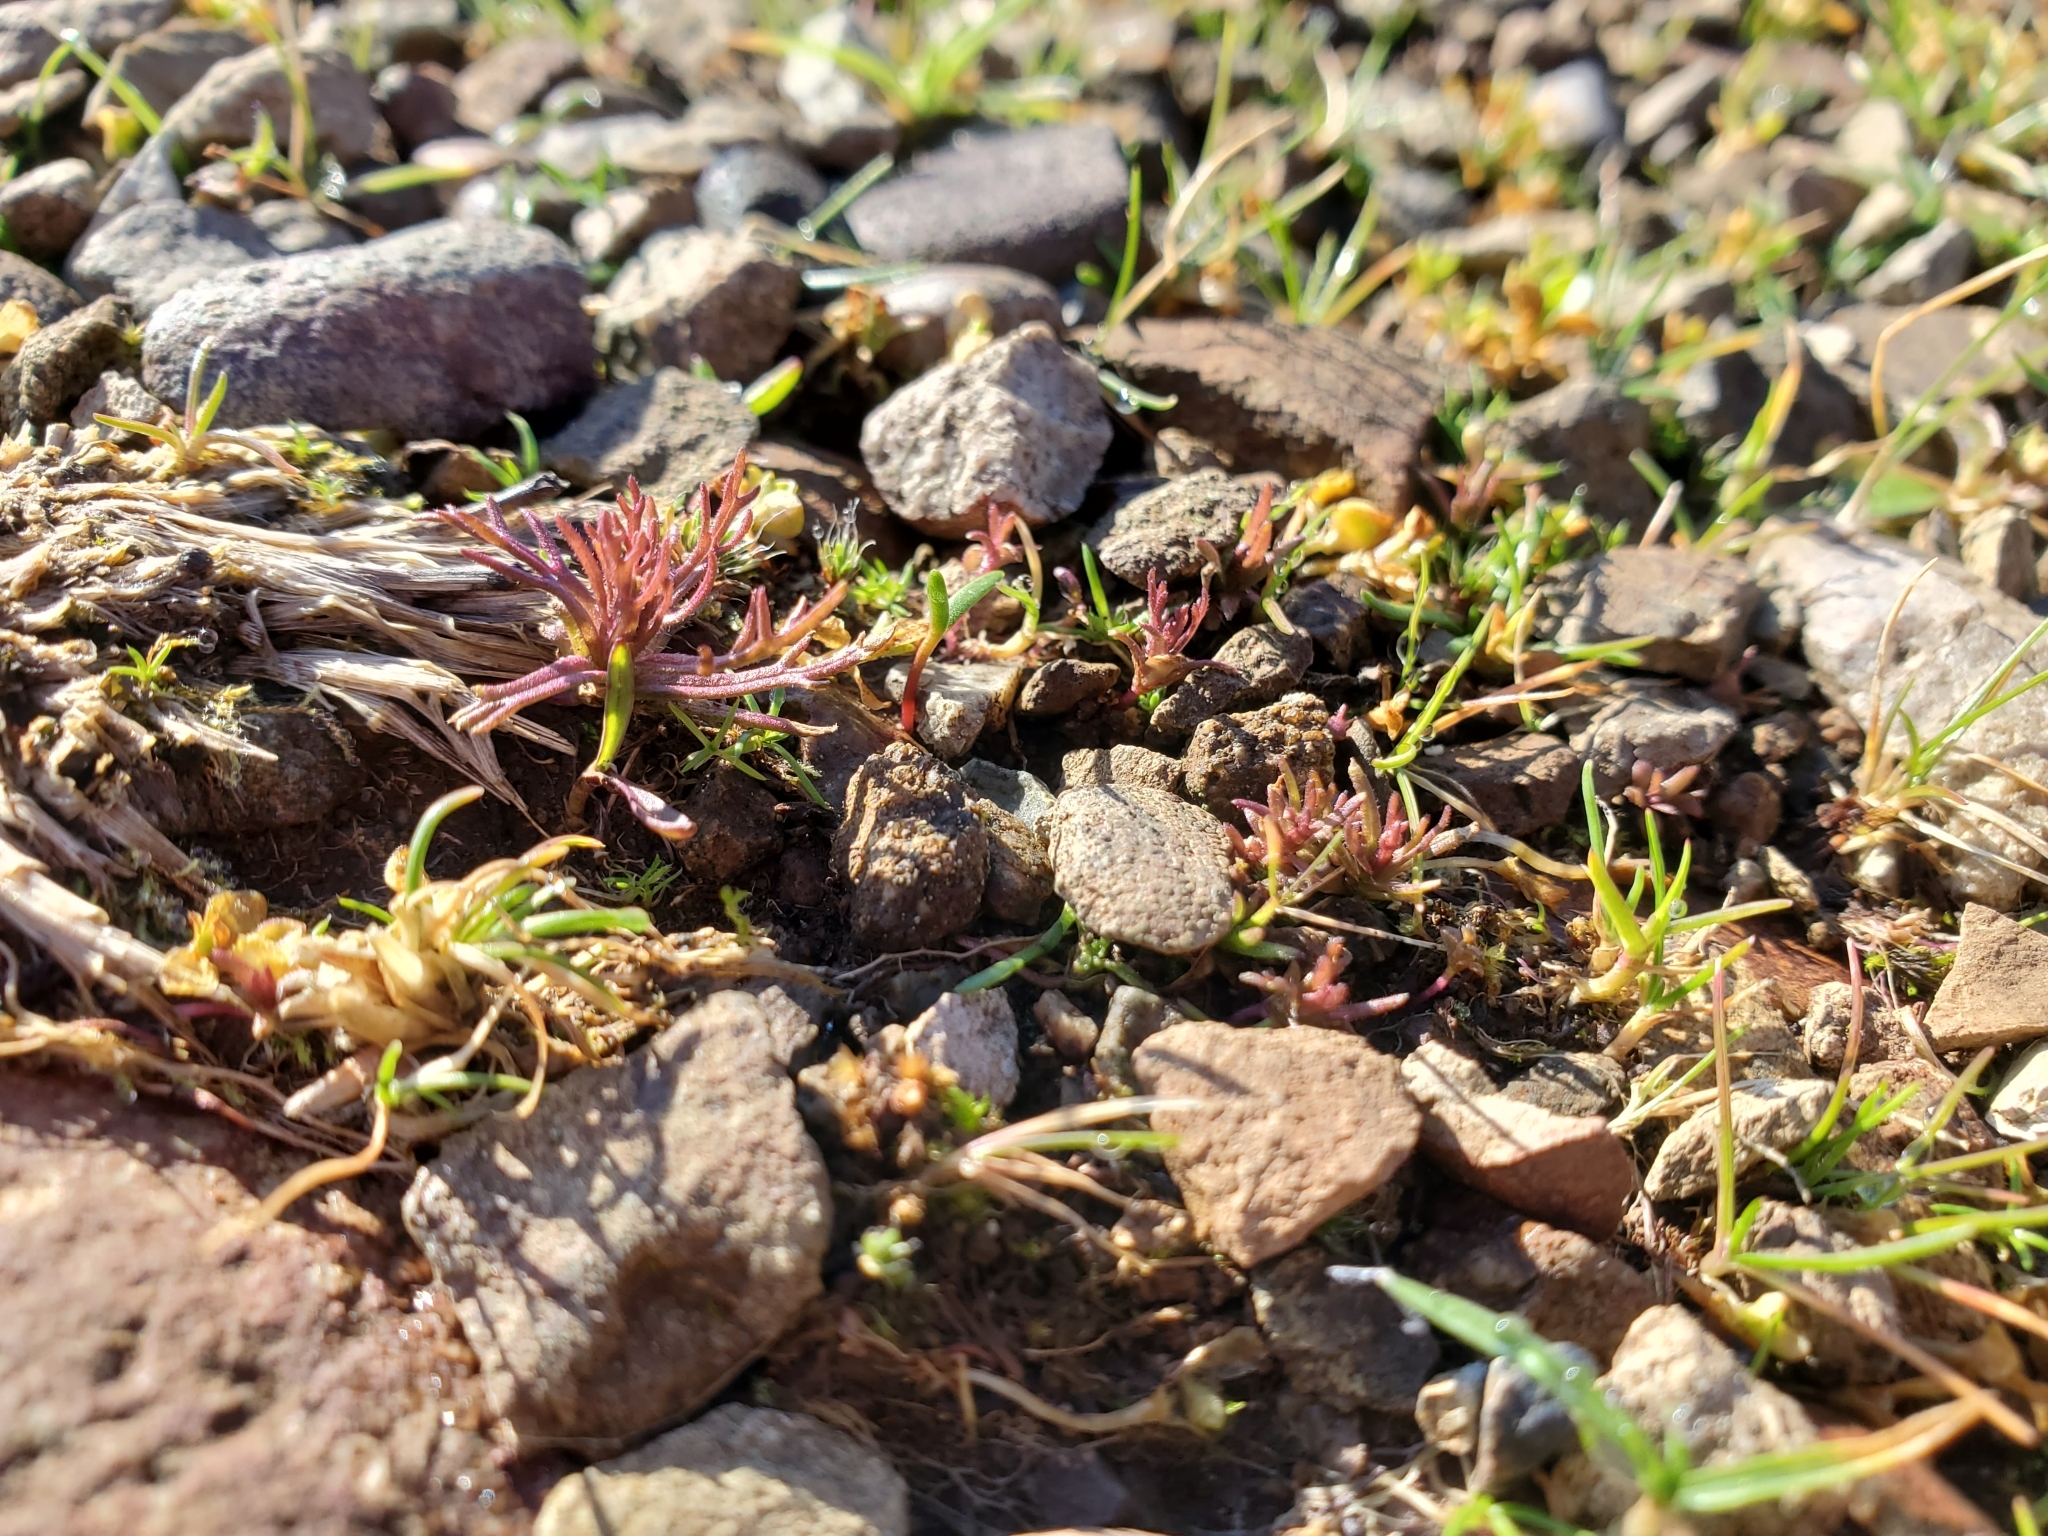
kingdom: Plantae
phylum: Tracheophyta
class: Magnoliopsida
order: Lamiales
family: Orobanchaceae
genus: Triphysaria
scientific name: Triphysaria pusilla
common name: Dwarf false owl-clover
